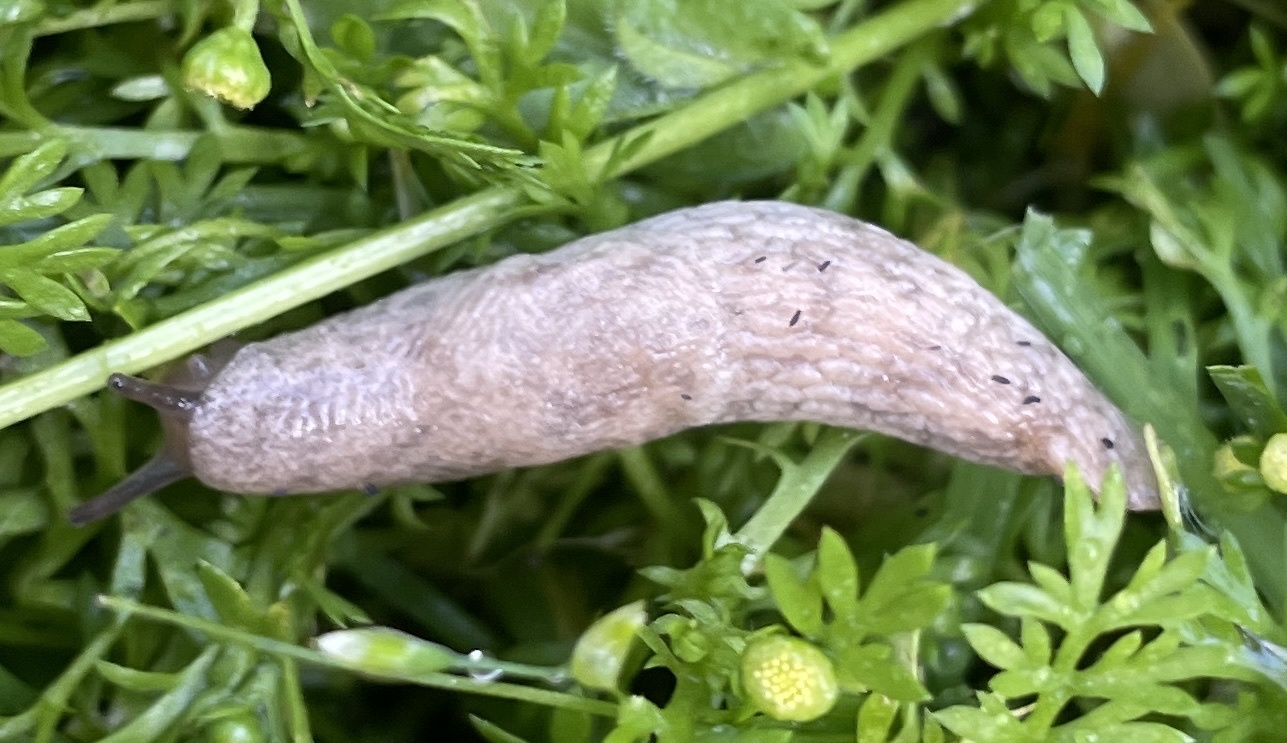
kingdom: Animalia
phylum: Mollusca
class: Gastropoda
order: Stylommatophora
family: Agriolimacidae
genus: Deroceras
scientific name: Deroceras reticulatum
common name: Gray field slug
